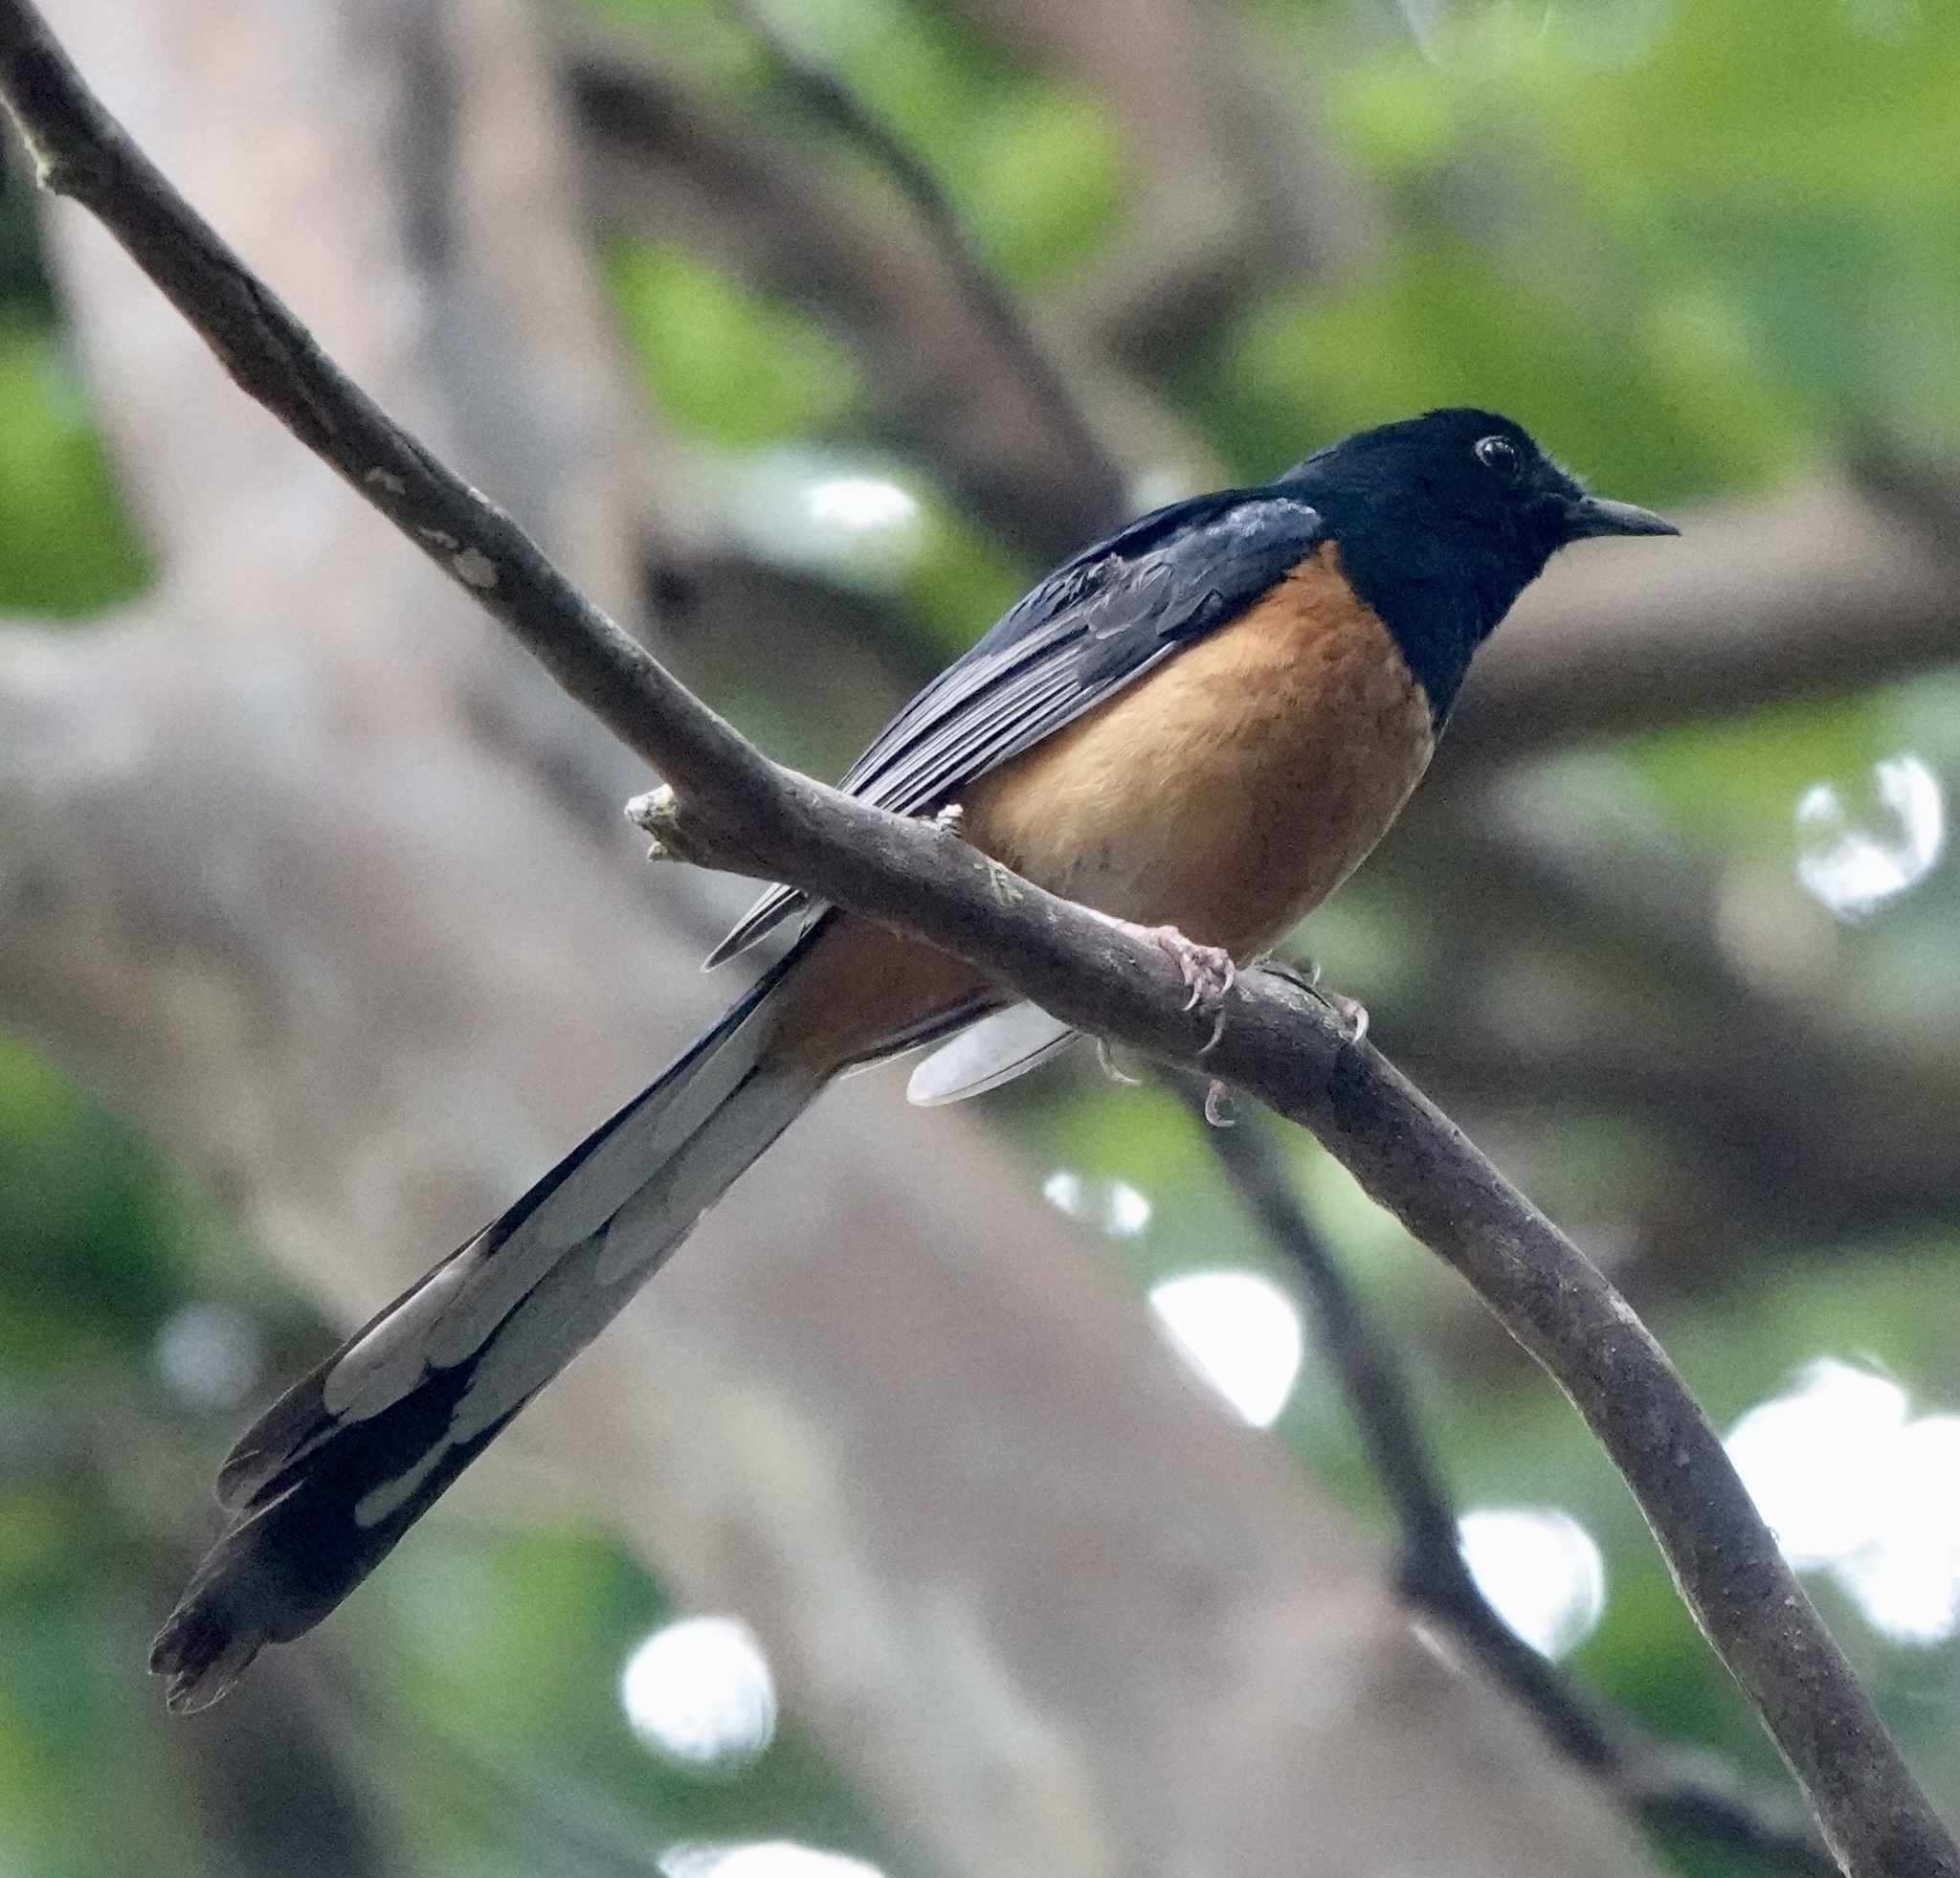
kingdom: Animalia
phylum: Chordata
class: Aves
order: Passeriformes
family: Muscicapidae
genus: Copsychus
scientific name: Copsychus malabaricus
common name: White-rumped shama
